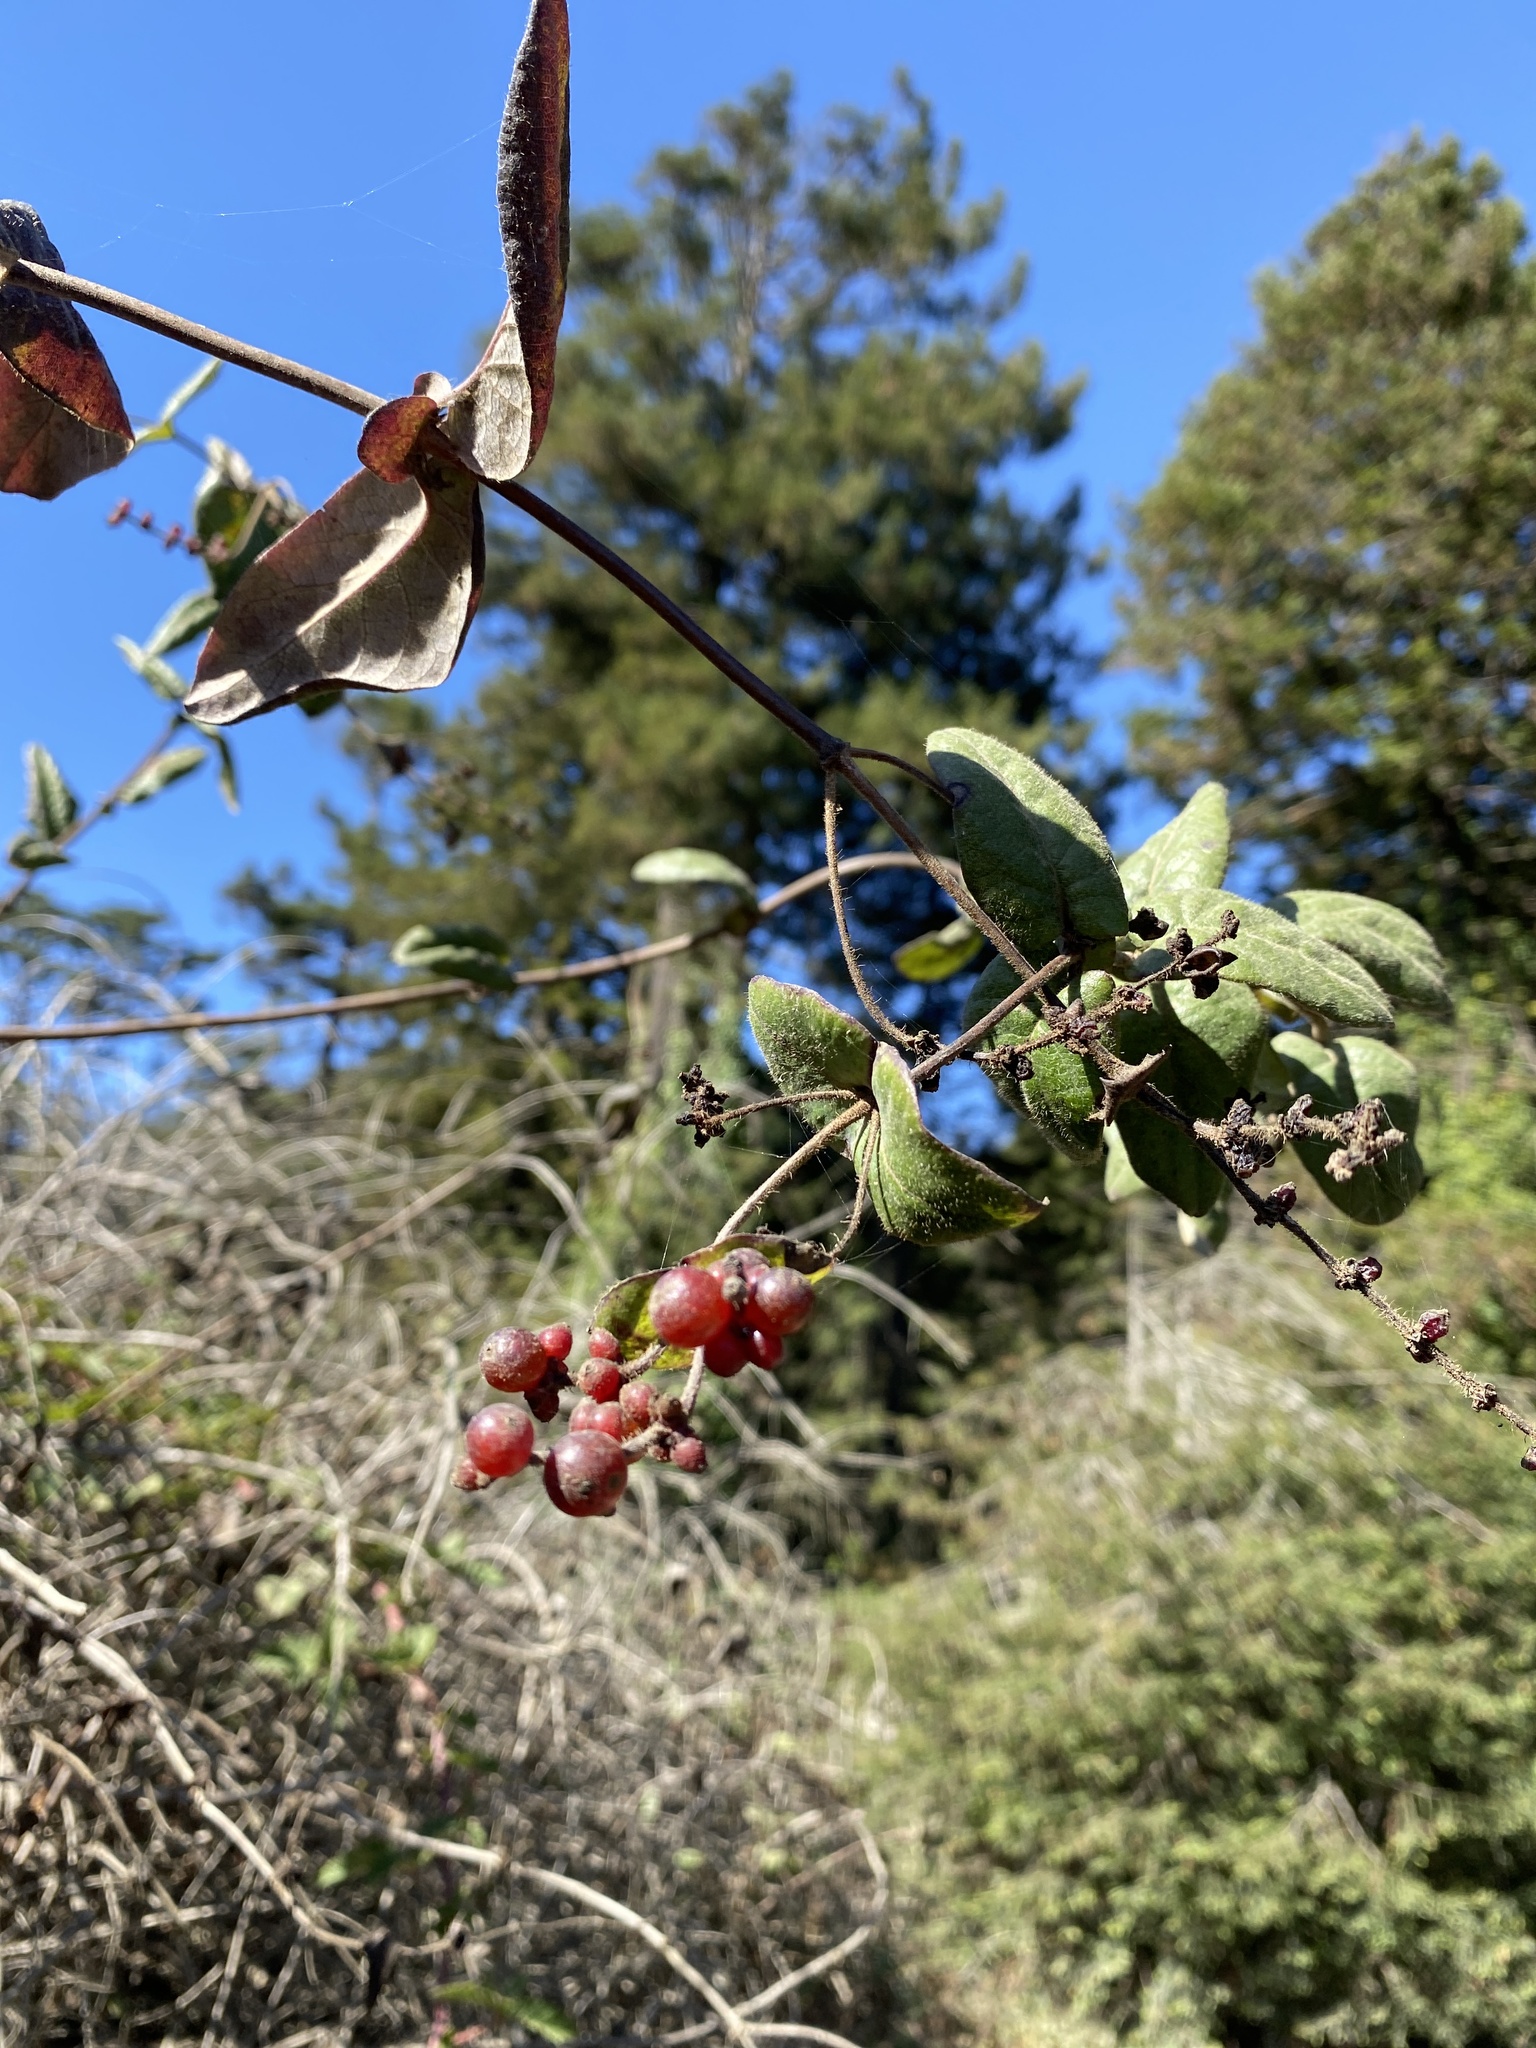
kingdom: Plantae
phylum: Tracheophyta
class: Magnoliopsida
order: Dipsacales
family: Caprifoliaceae
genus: Lonicera
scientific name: Lonicera hispidula
